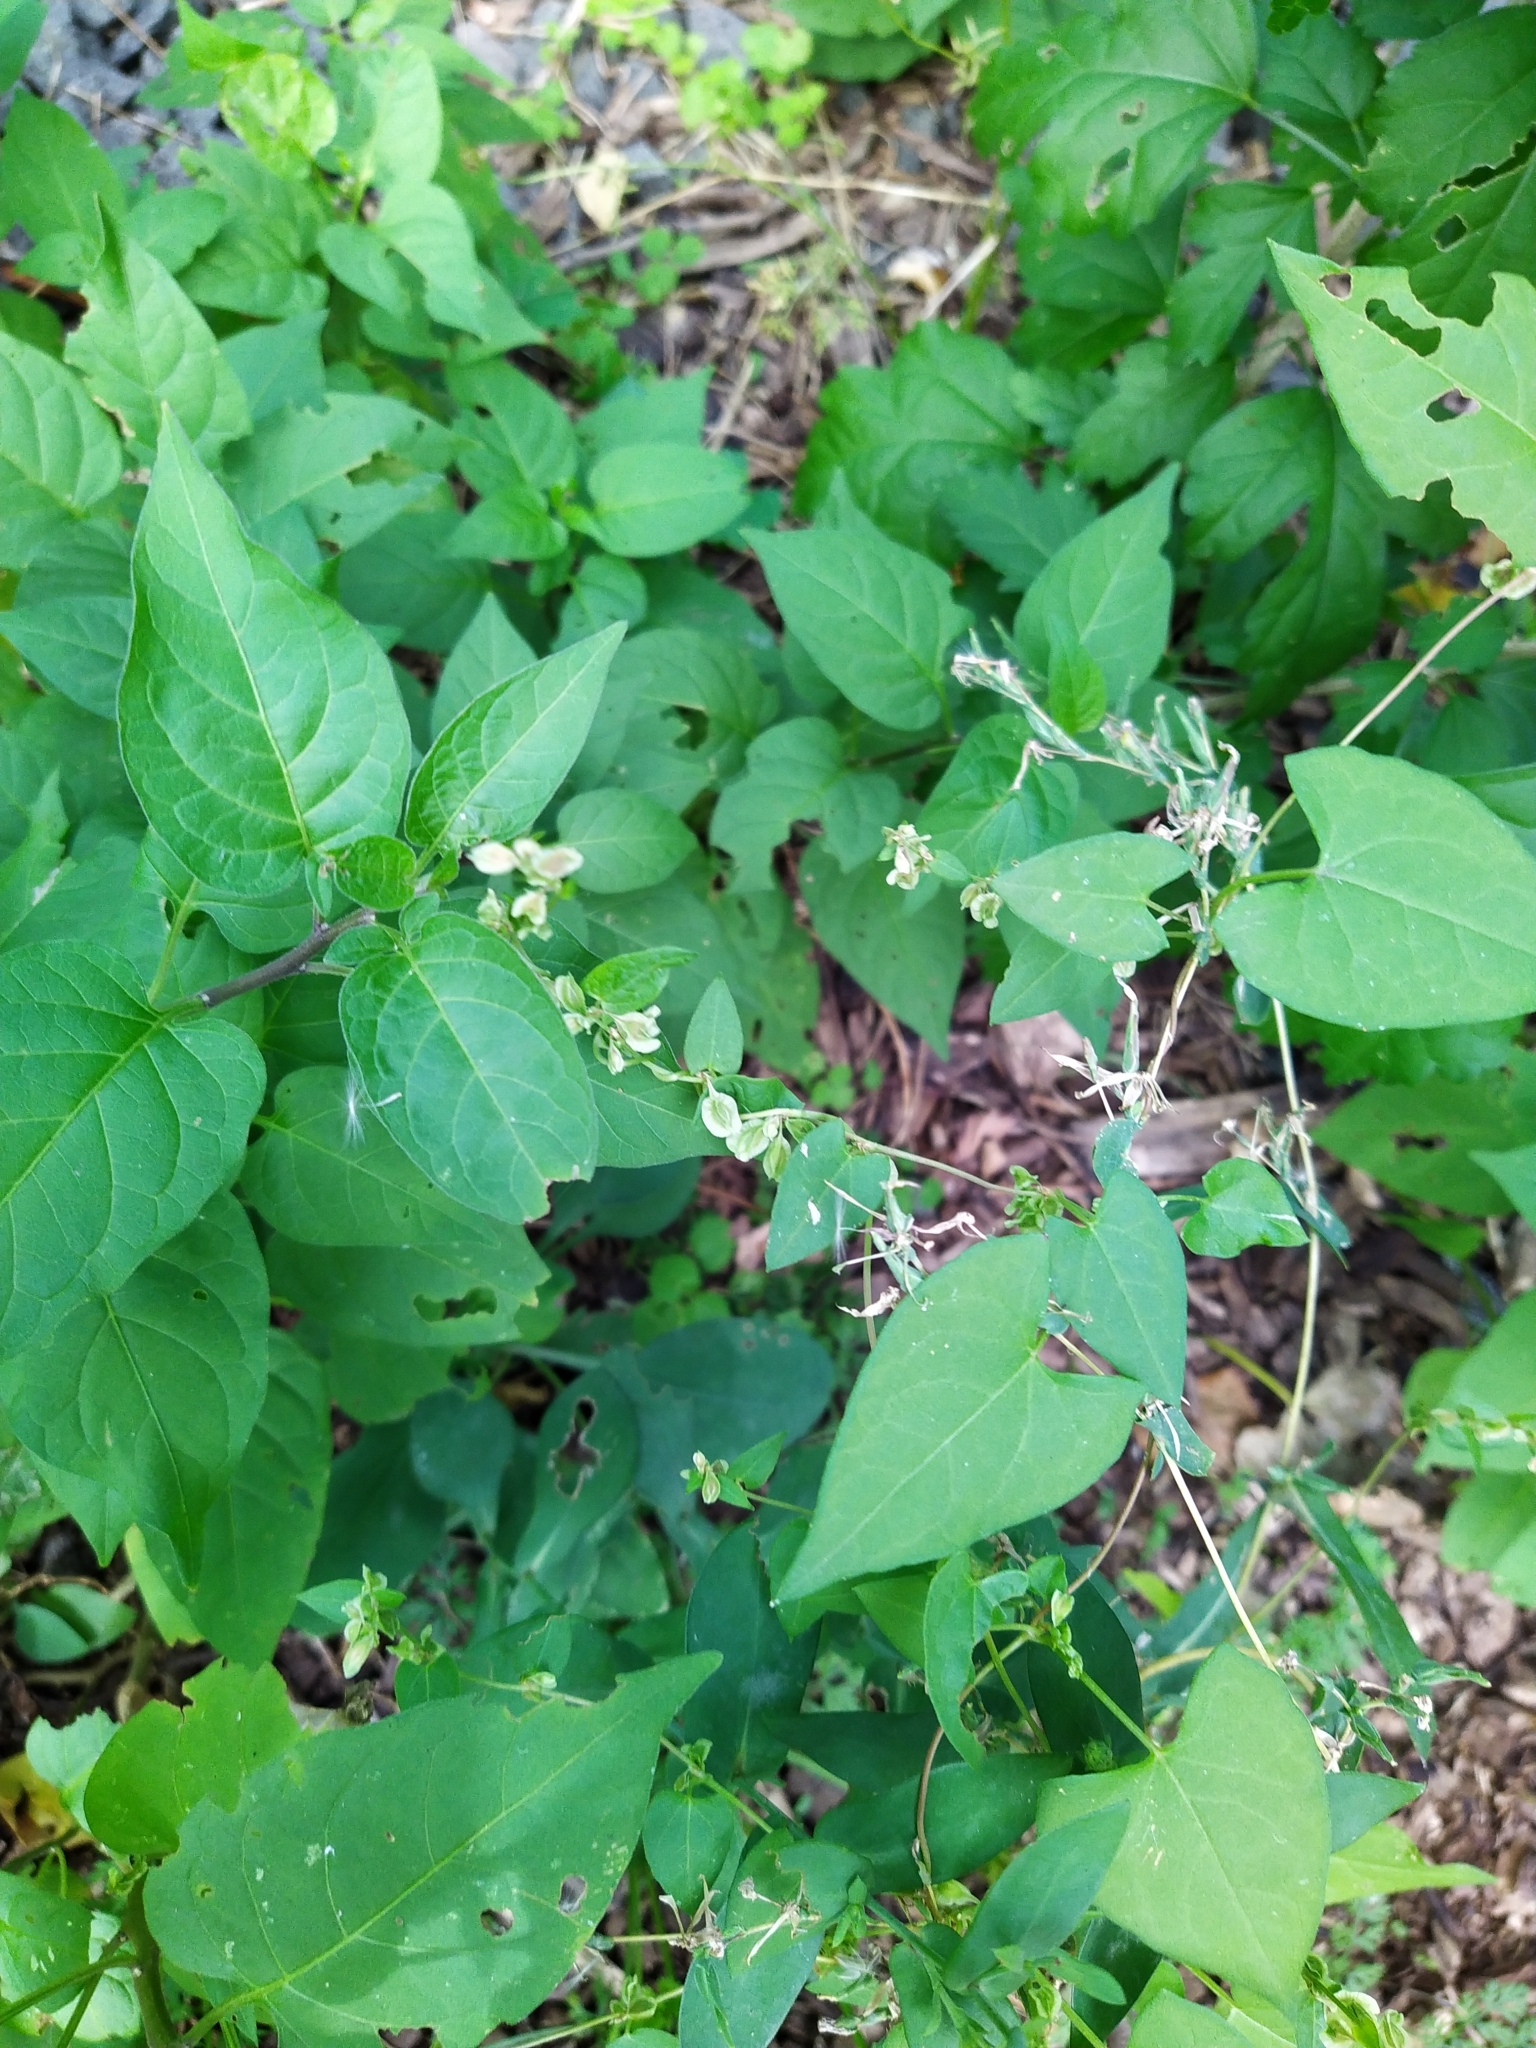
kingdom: Plantae
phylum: Tracheophyta
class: Magnoliopsida
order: Caryophyllales
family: Polygonaceae
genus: Fallopia
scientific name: Fallopia scandens
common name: Climbing false buckwheat
